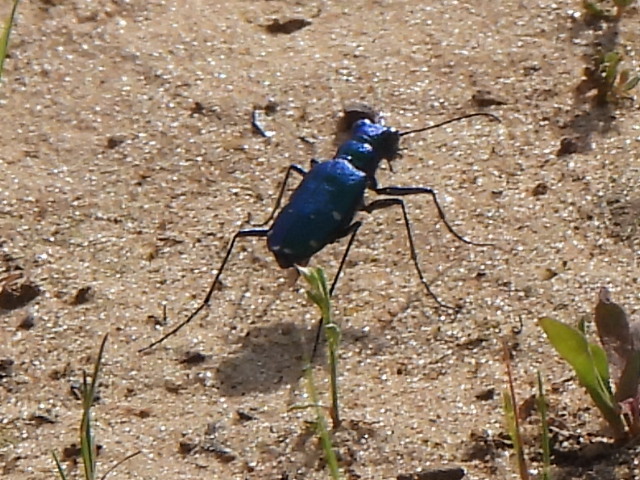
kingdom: Animalia
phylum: Arthropoda
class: Insecta
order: Coleoptera
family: Carabidae
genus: Cicindela
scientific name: Cicindela sexguttata
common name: Six-spotted tiger beetle
